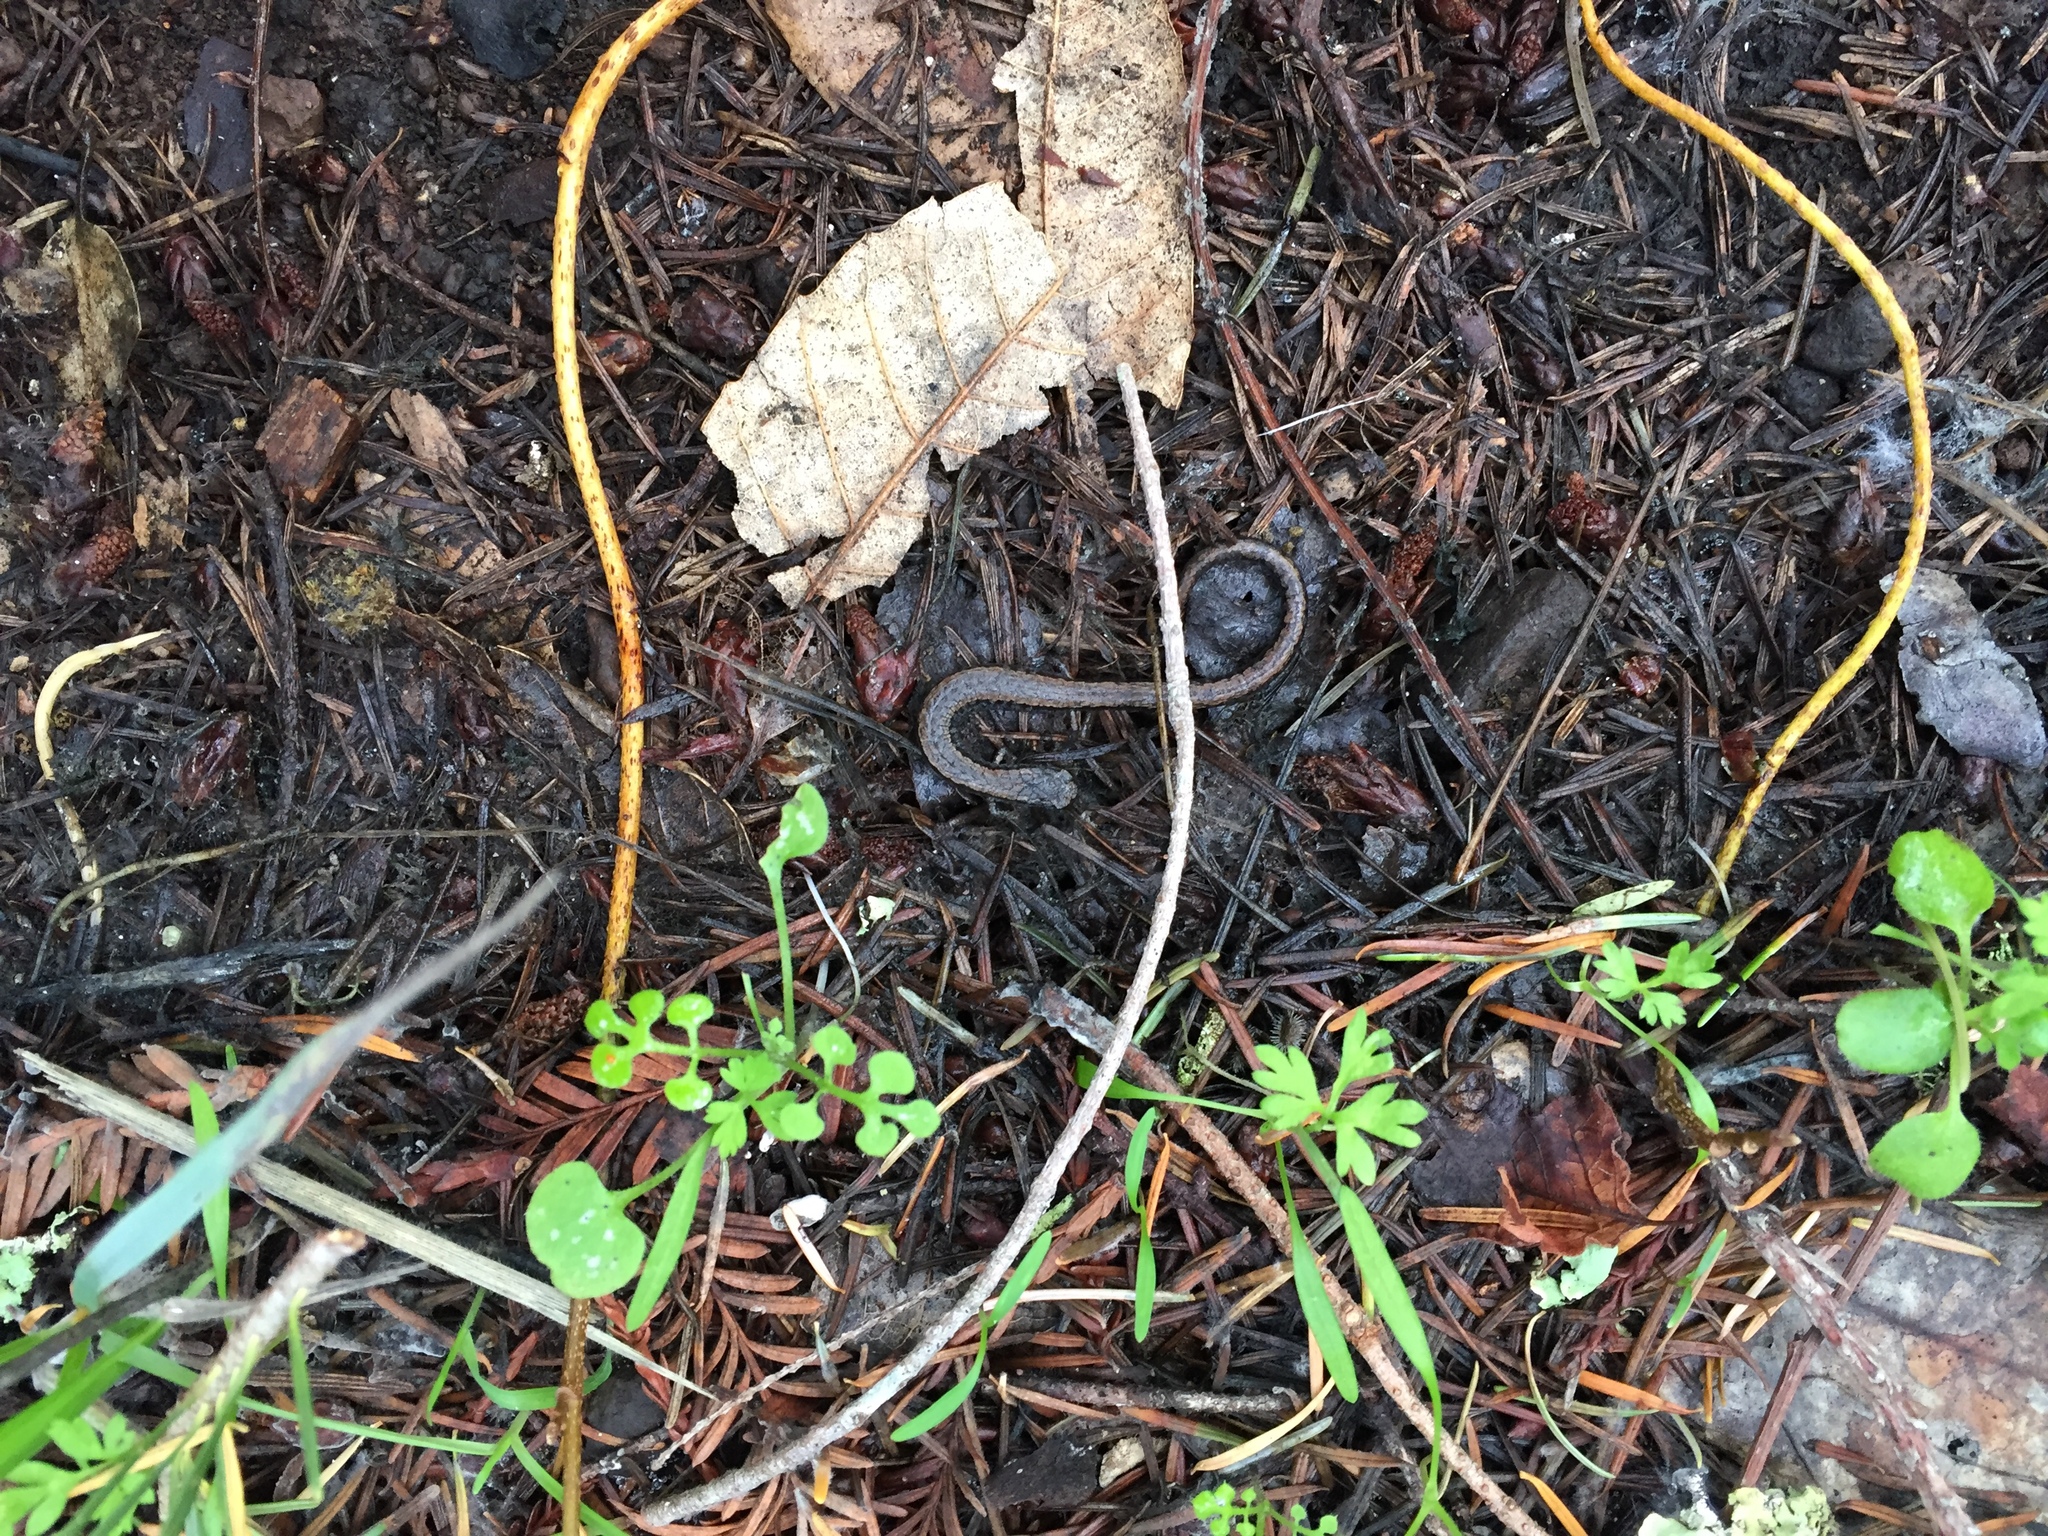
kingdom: Animalia
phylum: Chordata
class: Amphibia
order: Caudata
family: Plethodontidae
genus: Batrachoseps
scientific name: Batrachoseps attenuatus
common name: California slender salamander
